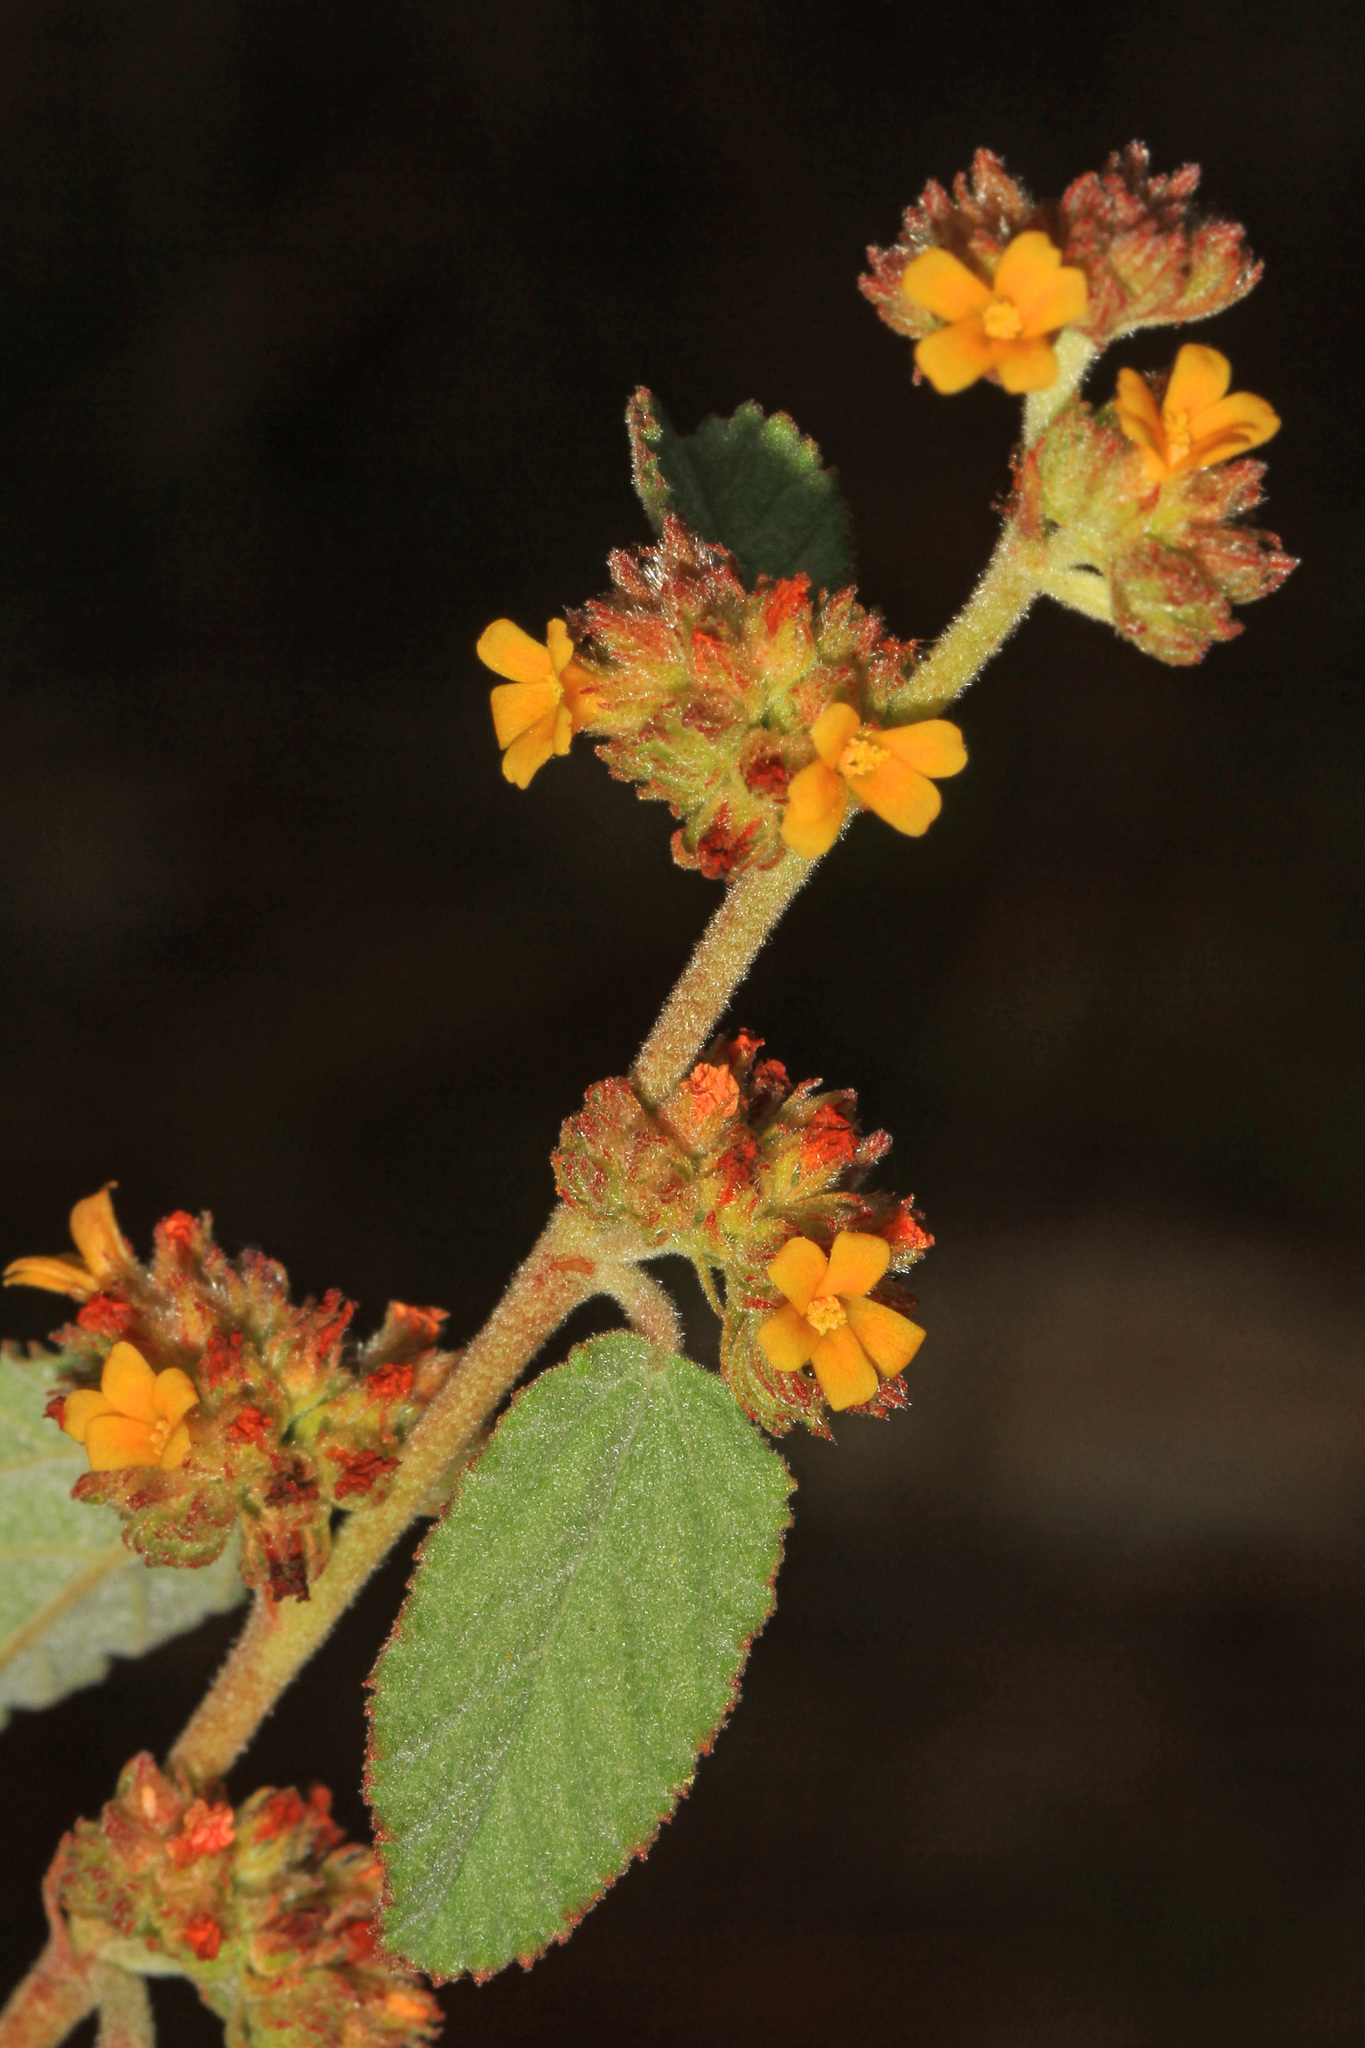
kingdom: Plantae
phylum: Tracheophyta
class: Magnoliopsida
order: Malvales
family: Malvaceae
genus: Waltheria
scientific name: Waltheria indica
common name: Leather-coat
